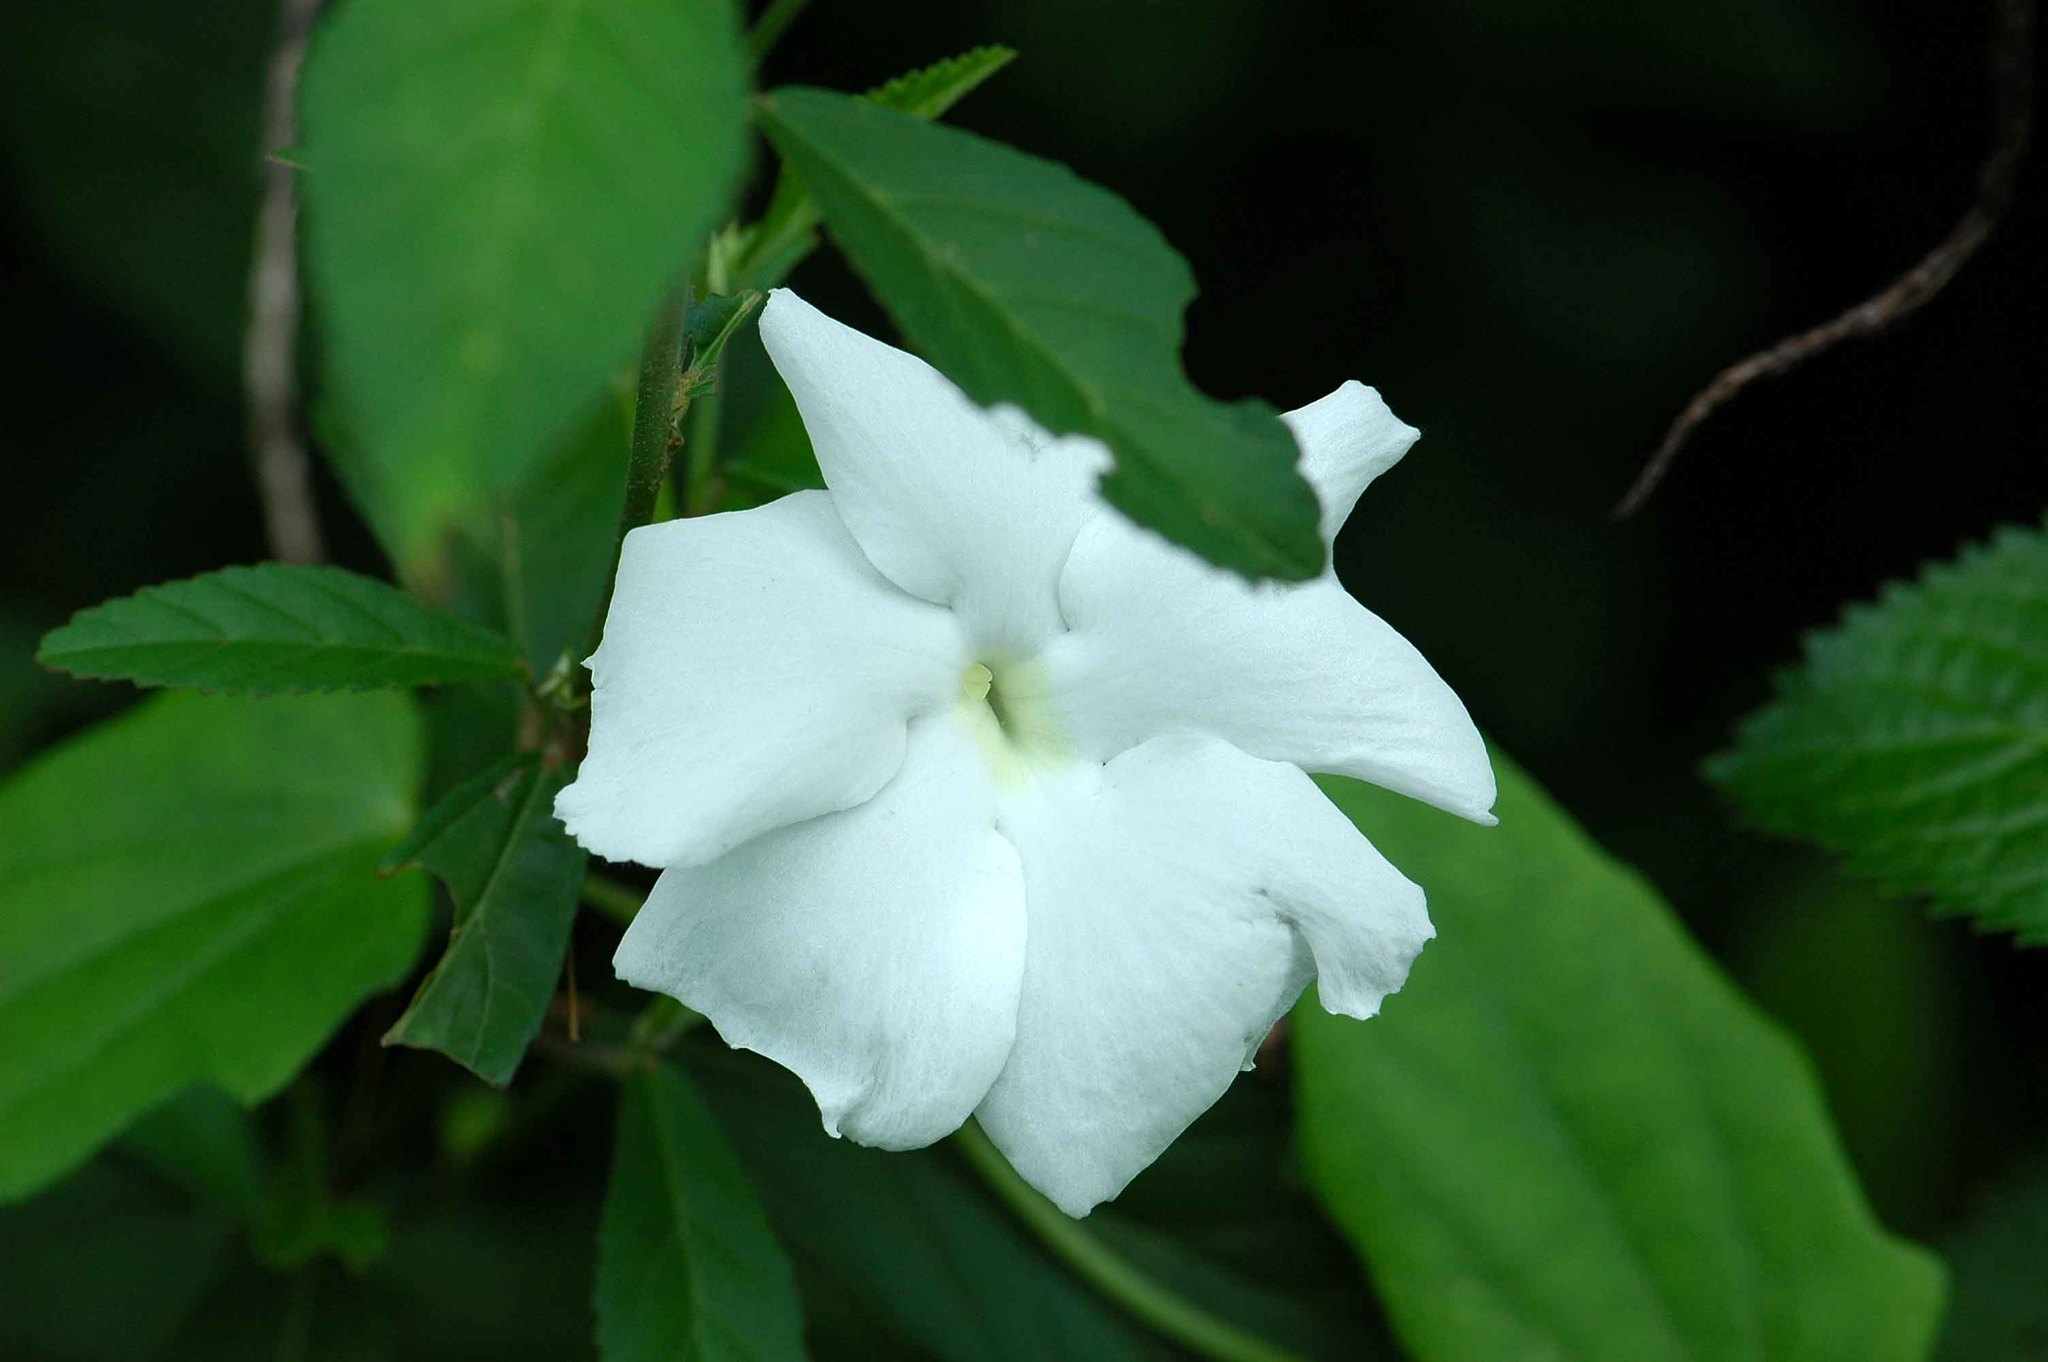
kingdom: Plantae
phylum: Tracheophyta
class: Magnoliopsida
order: Lamiales
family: Acanthaceae
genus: Thunbergia
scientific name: Thunbergia fragrans
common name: Whitelady
